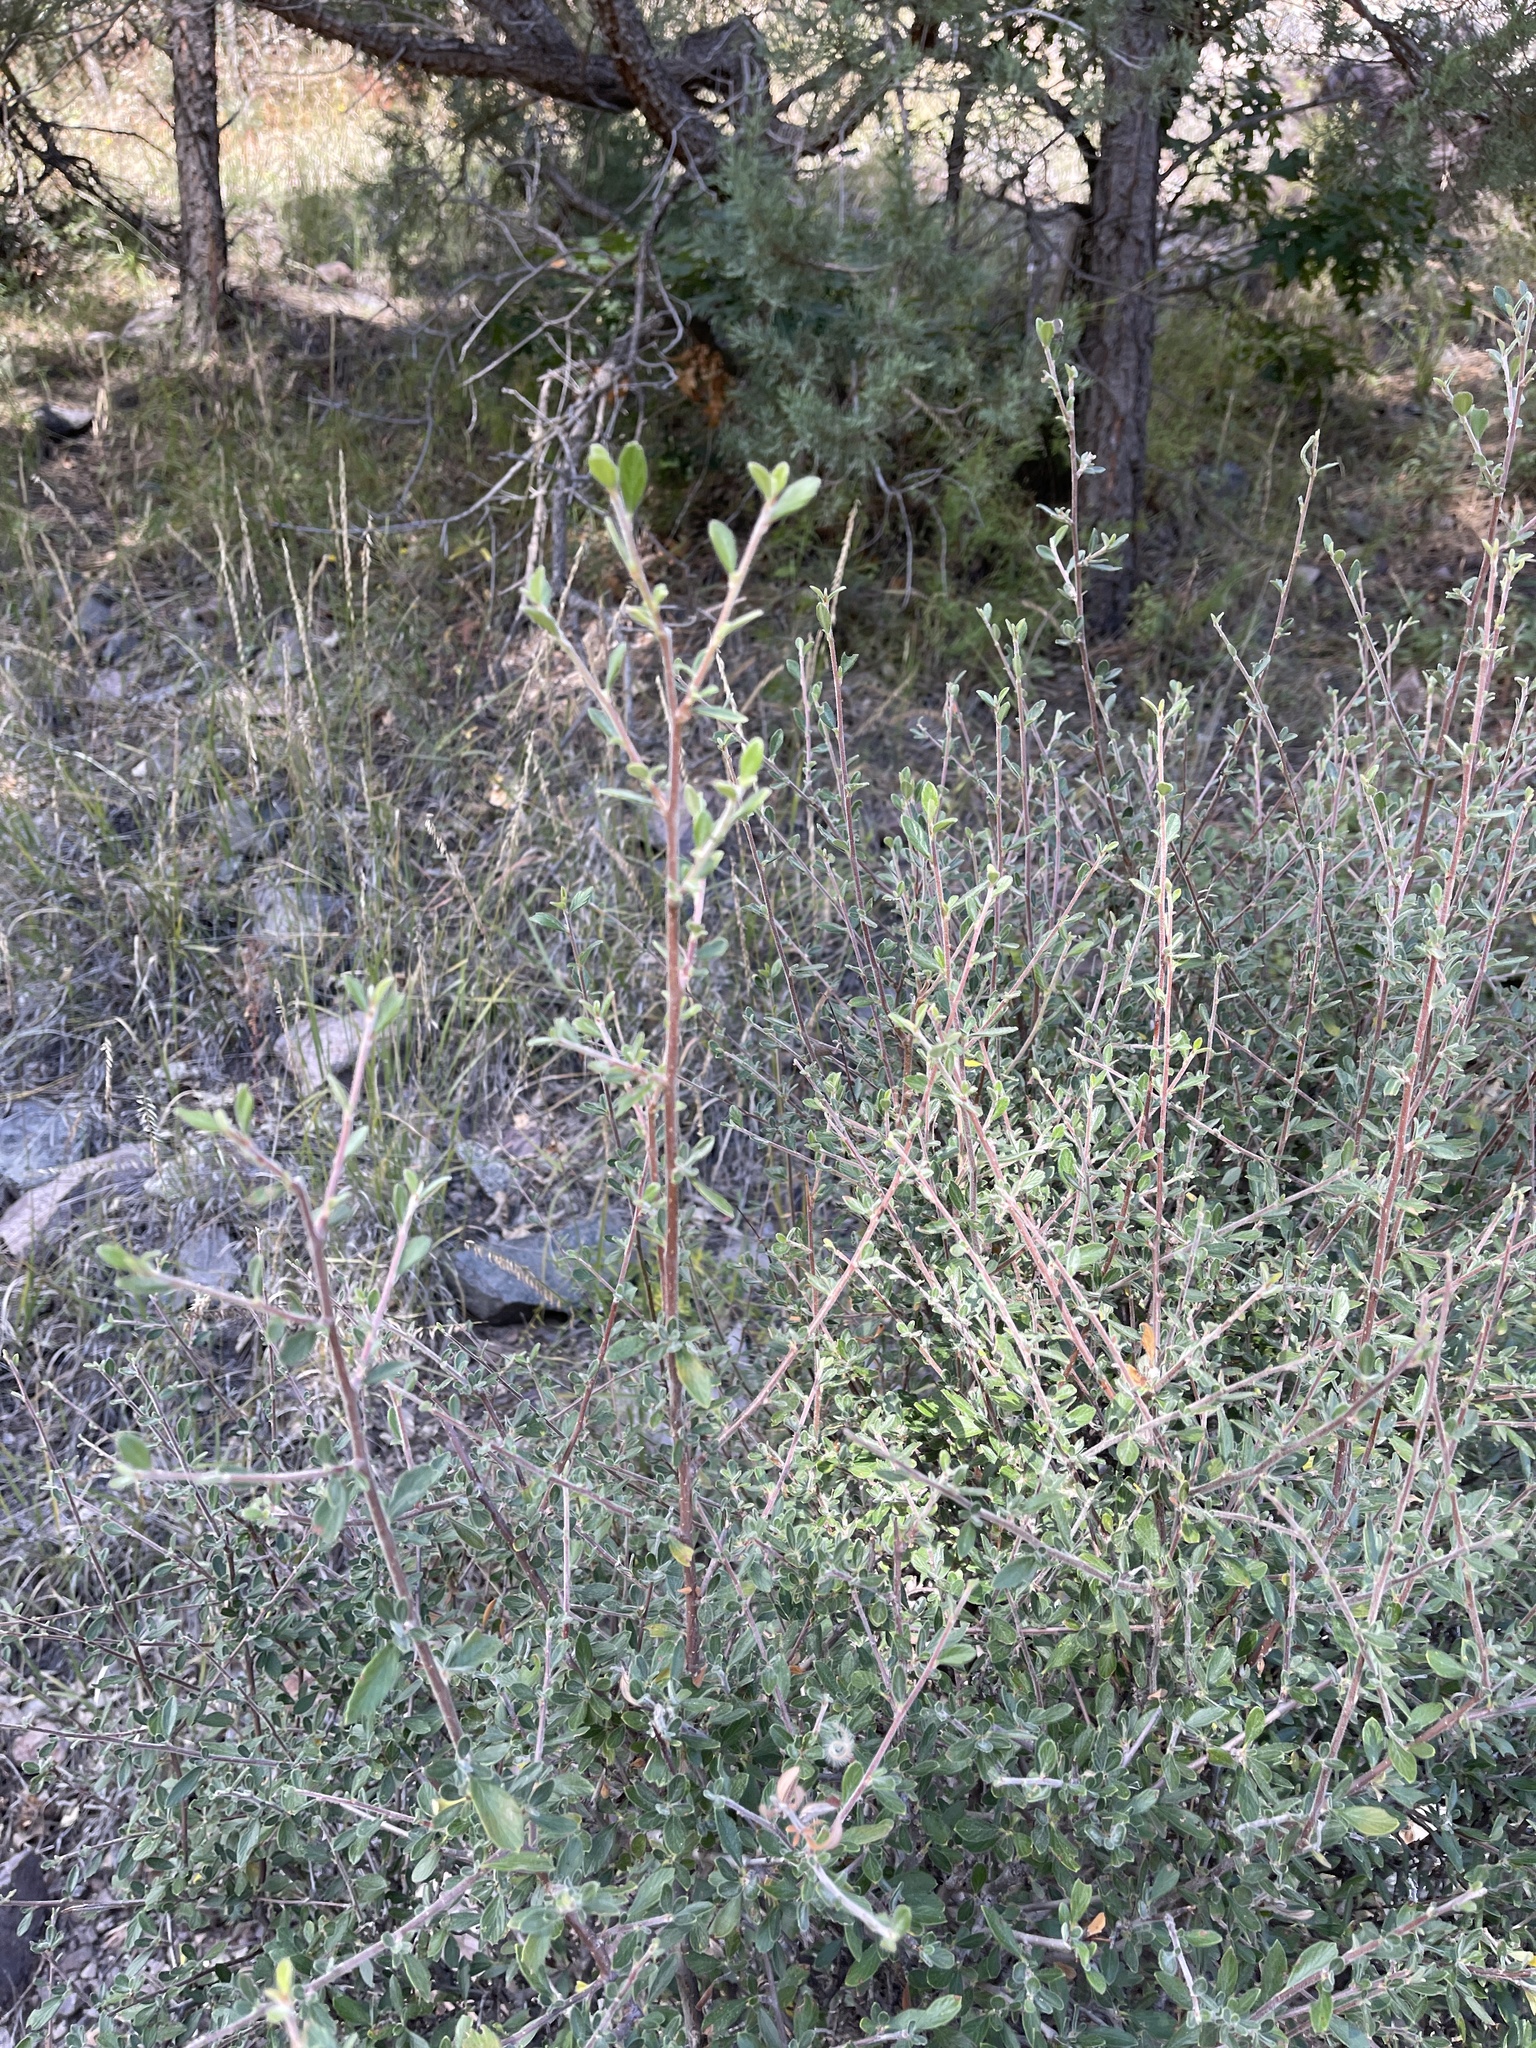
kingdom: Plantae
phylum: Tracheophyta
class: Magnoliopsida
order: Rosales
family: Rosaceae
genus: Cercocarpus
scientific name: Cercocarpus breviflorus
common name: Wright's mountain-mahogany
